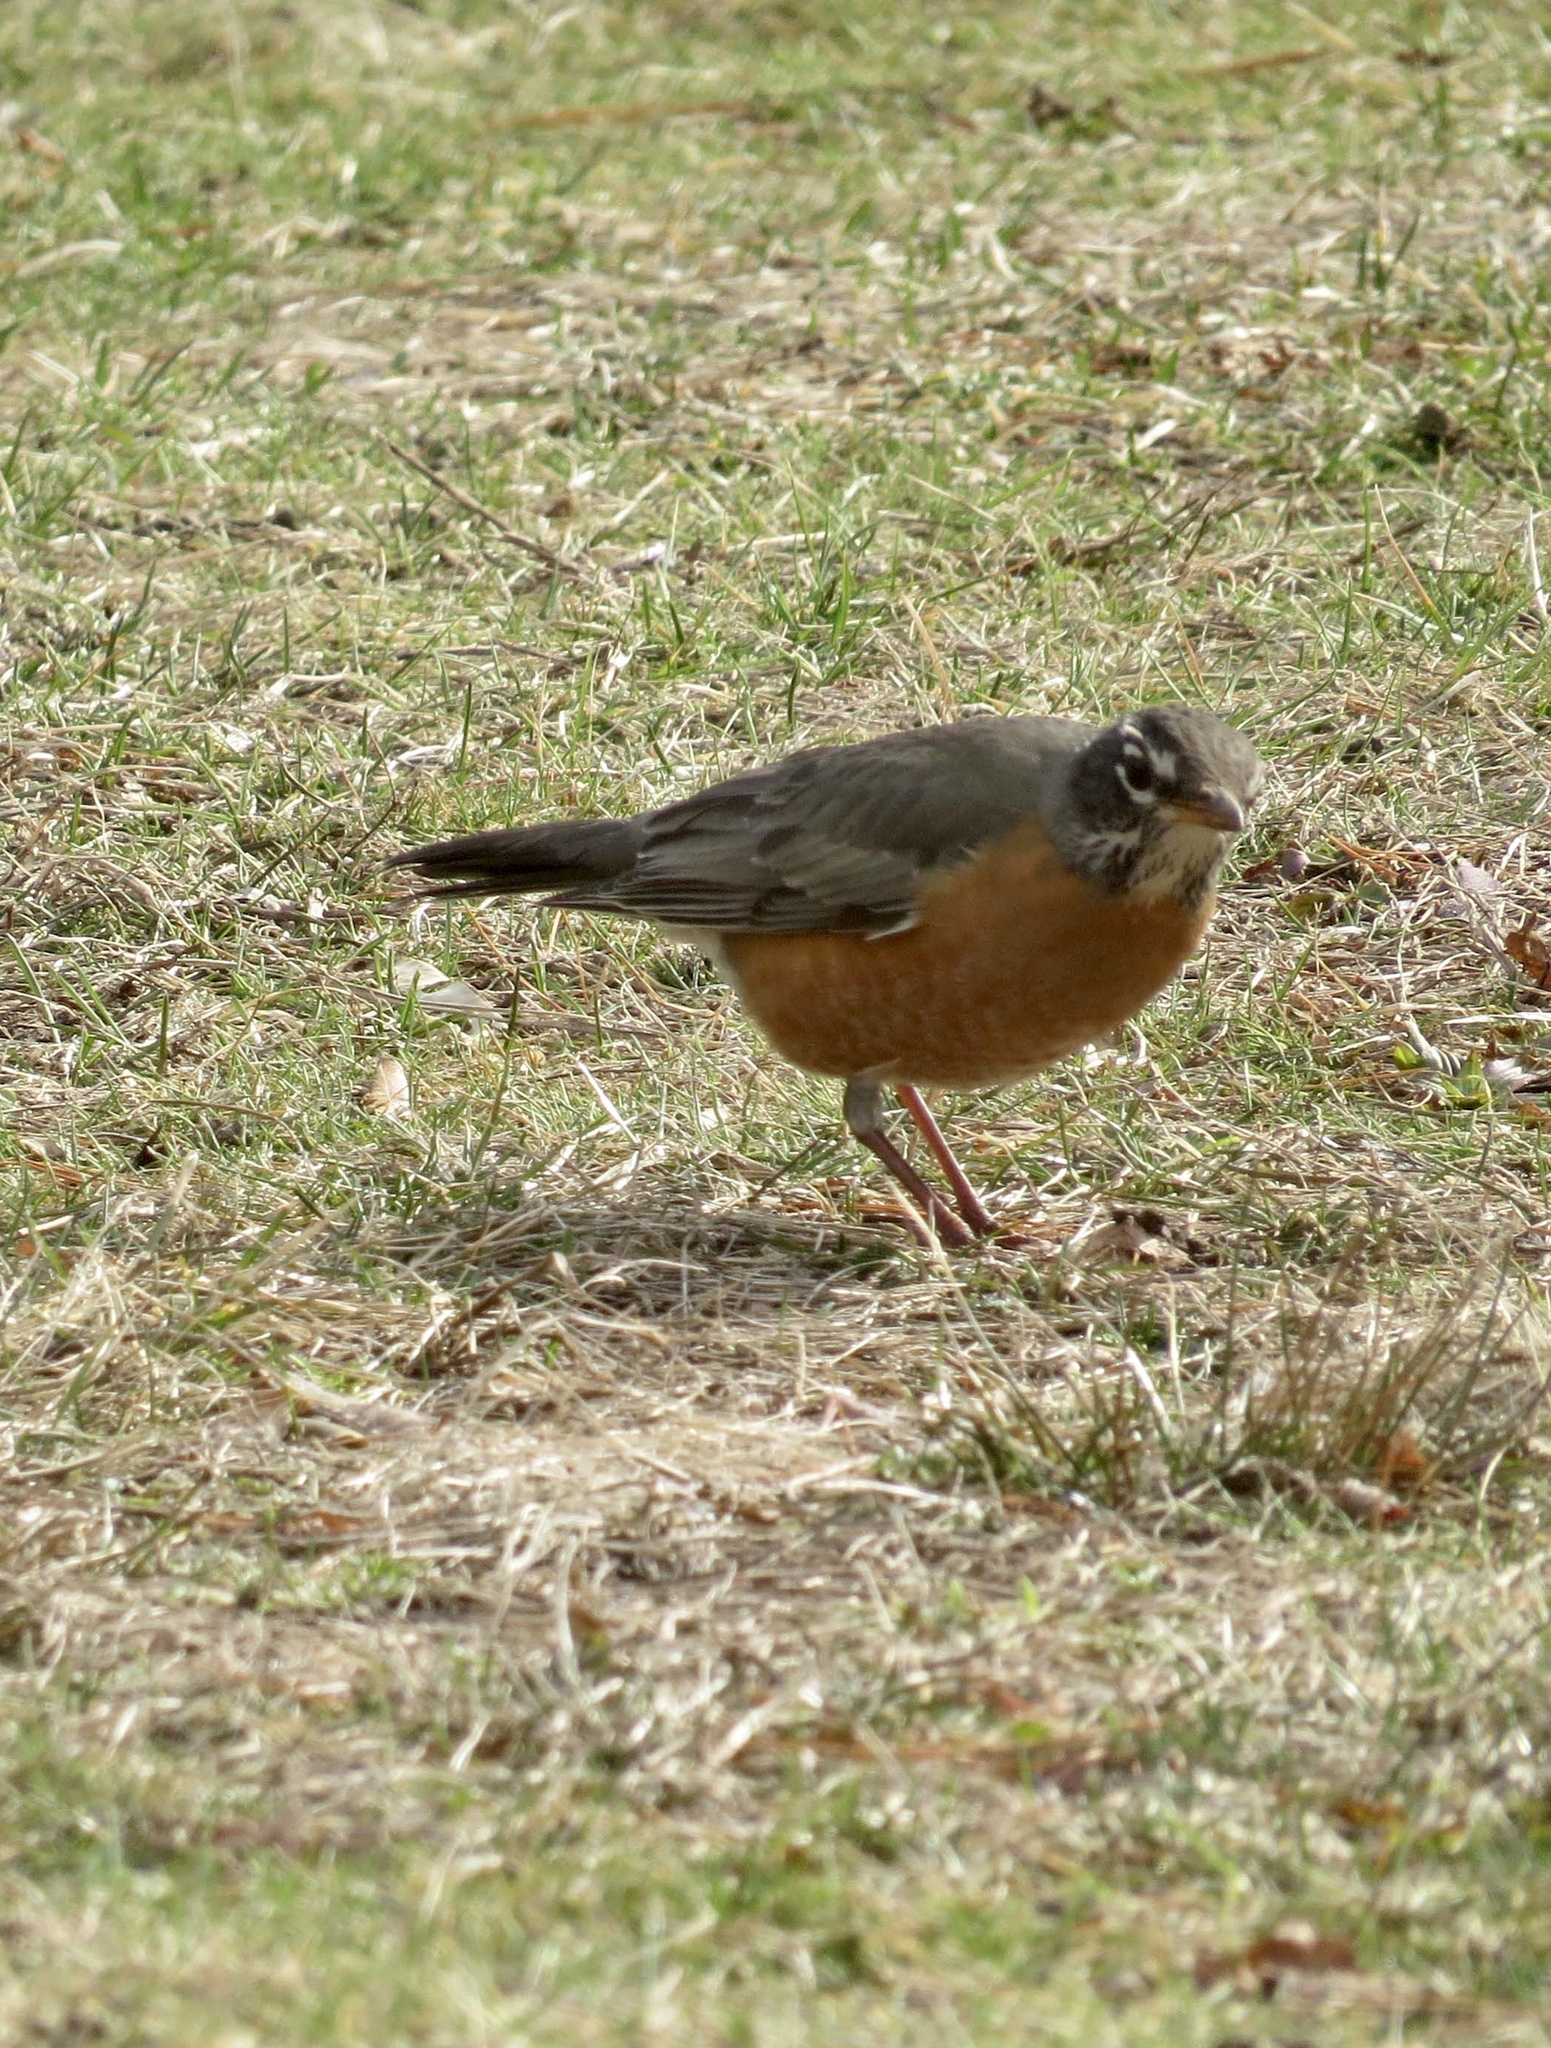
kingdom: Animalia
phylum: Chordata
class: Aves
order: Passeriformes
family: Turdidae
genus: Turdus
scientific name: Turdus migratorius
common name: American robin
